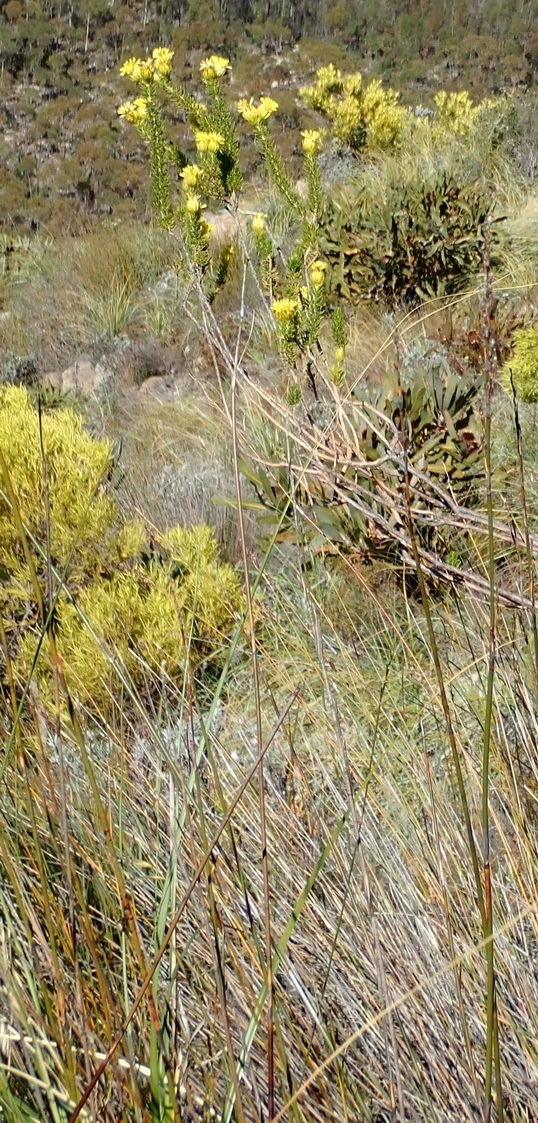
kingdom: Plantae
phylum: Tracheophyta
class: Magnoliopsida
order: Asterales
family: Asteraceae
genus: Pteronia
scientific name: Pteronia camphorata
